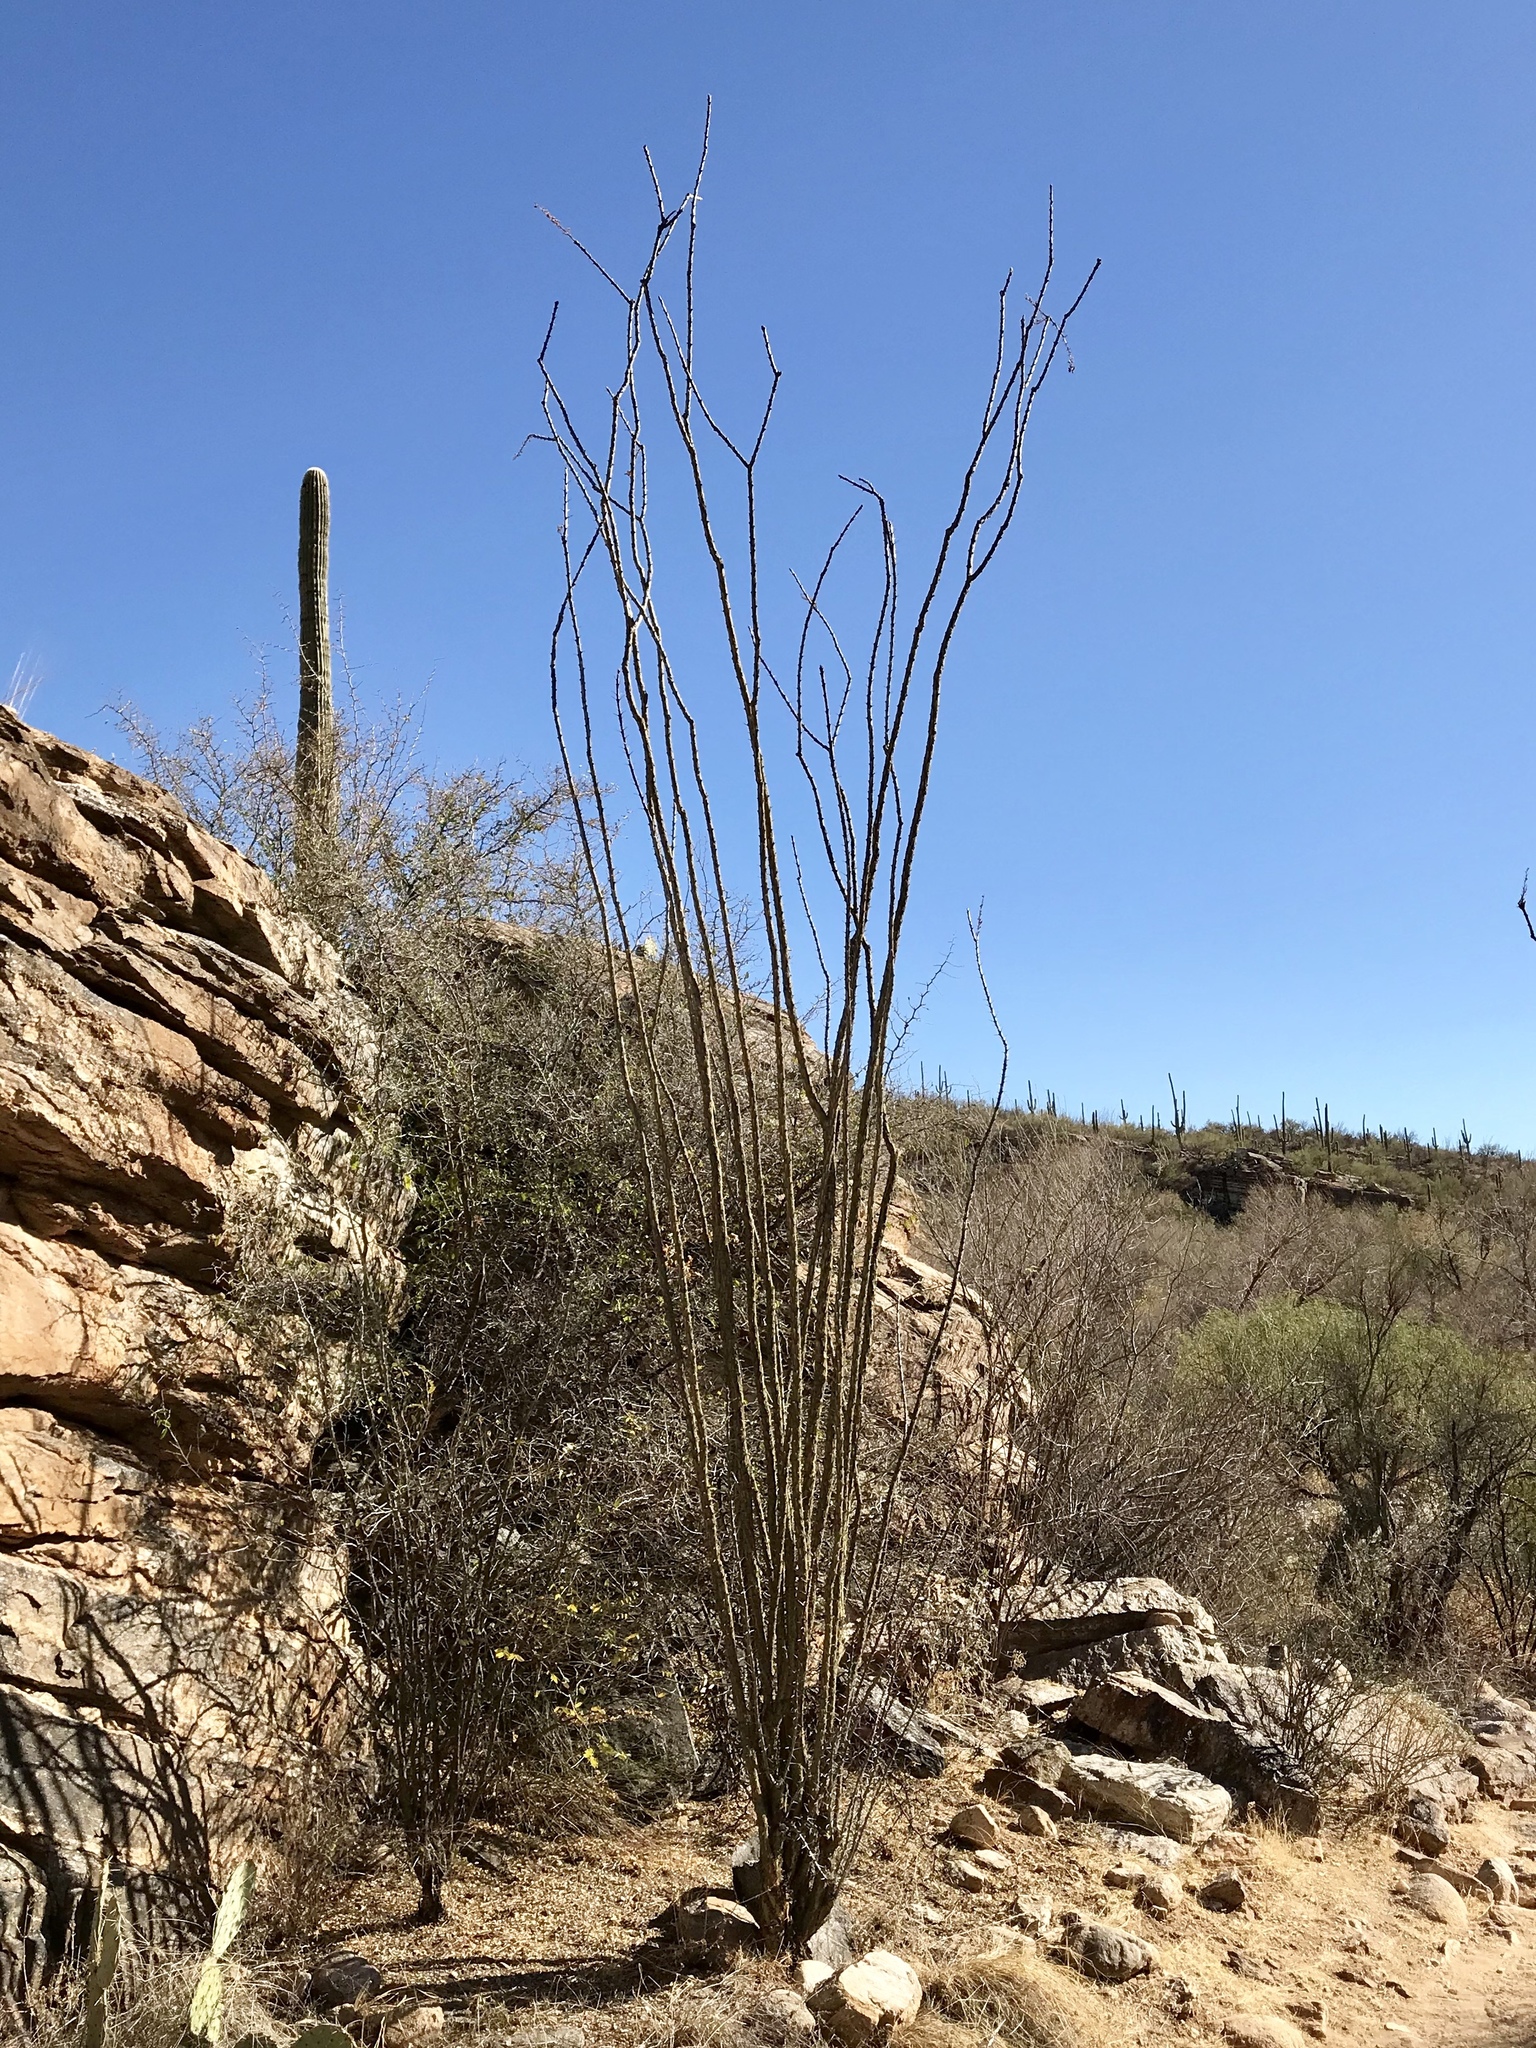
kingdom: Plantae
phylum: Tracheophyta
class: Magnoliopsida
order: Ericales
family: Fouquieriaceae
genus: Fouquieria
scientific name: Fouquieria splendens
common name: Vine-cactus
